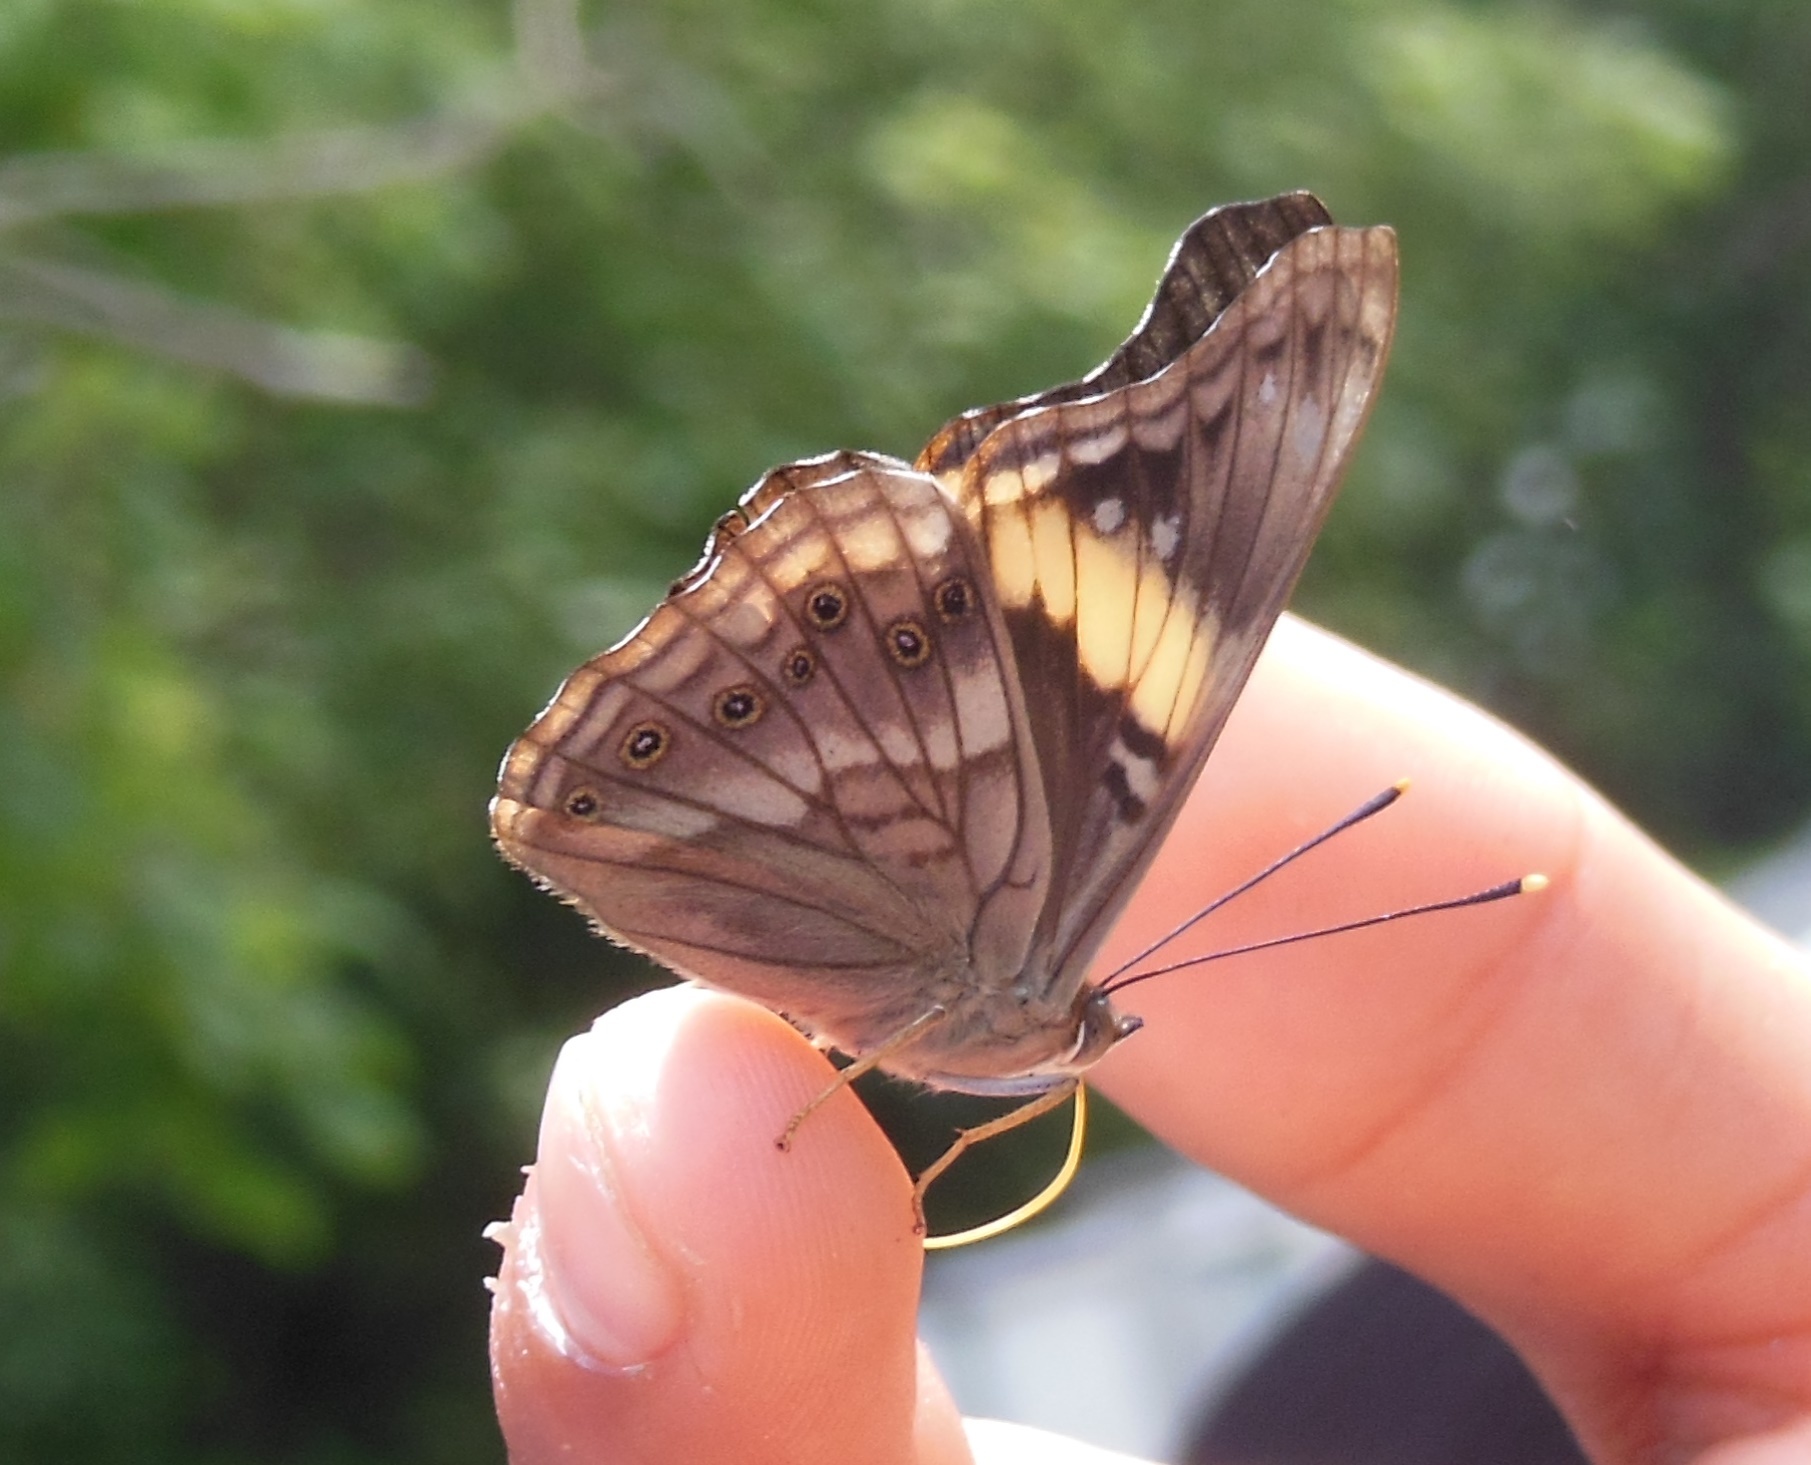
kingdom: Animalia
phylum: Arthropoda
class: Insecta
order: Lepidoptera
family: Nymphalidae
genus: Asterocampa
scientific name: Asterocampa idyja
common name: Dusky emperor
